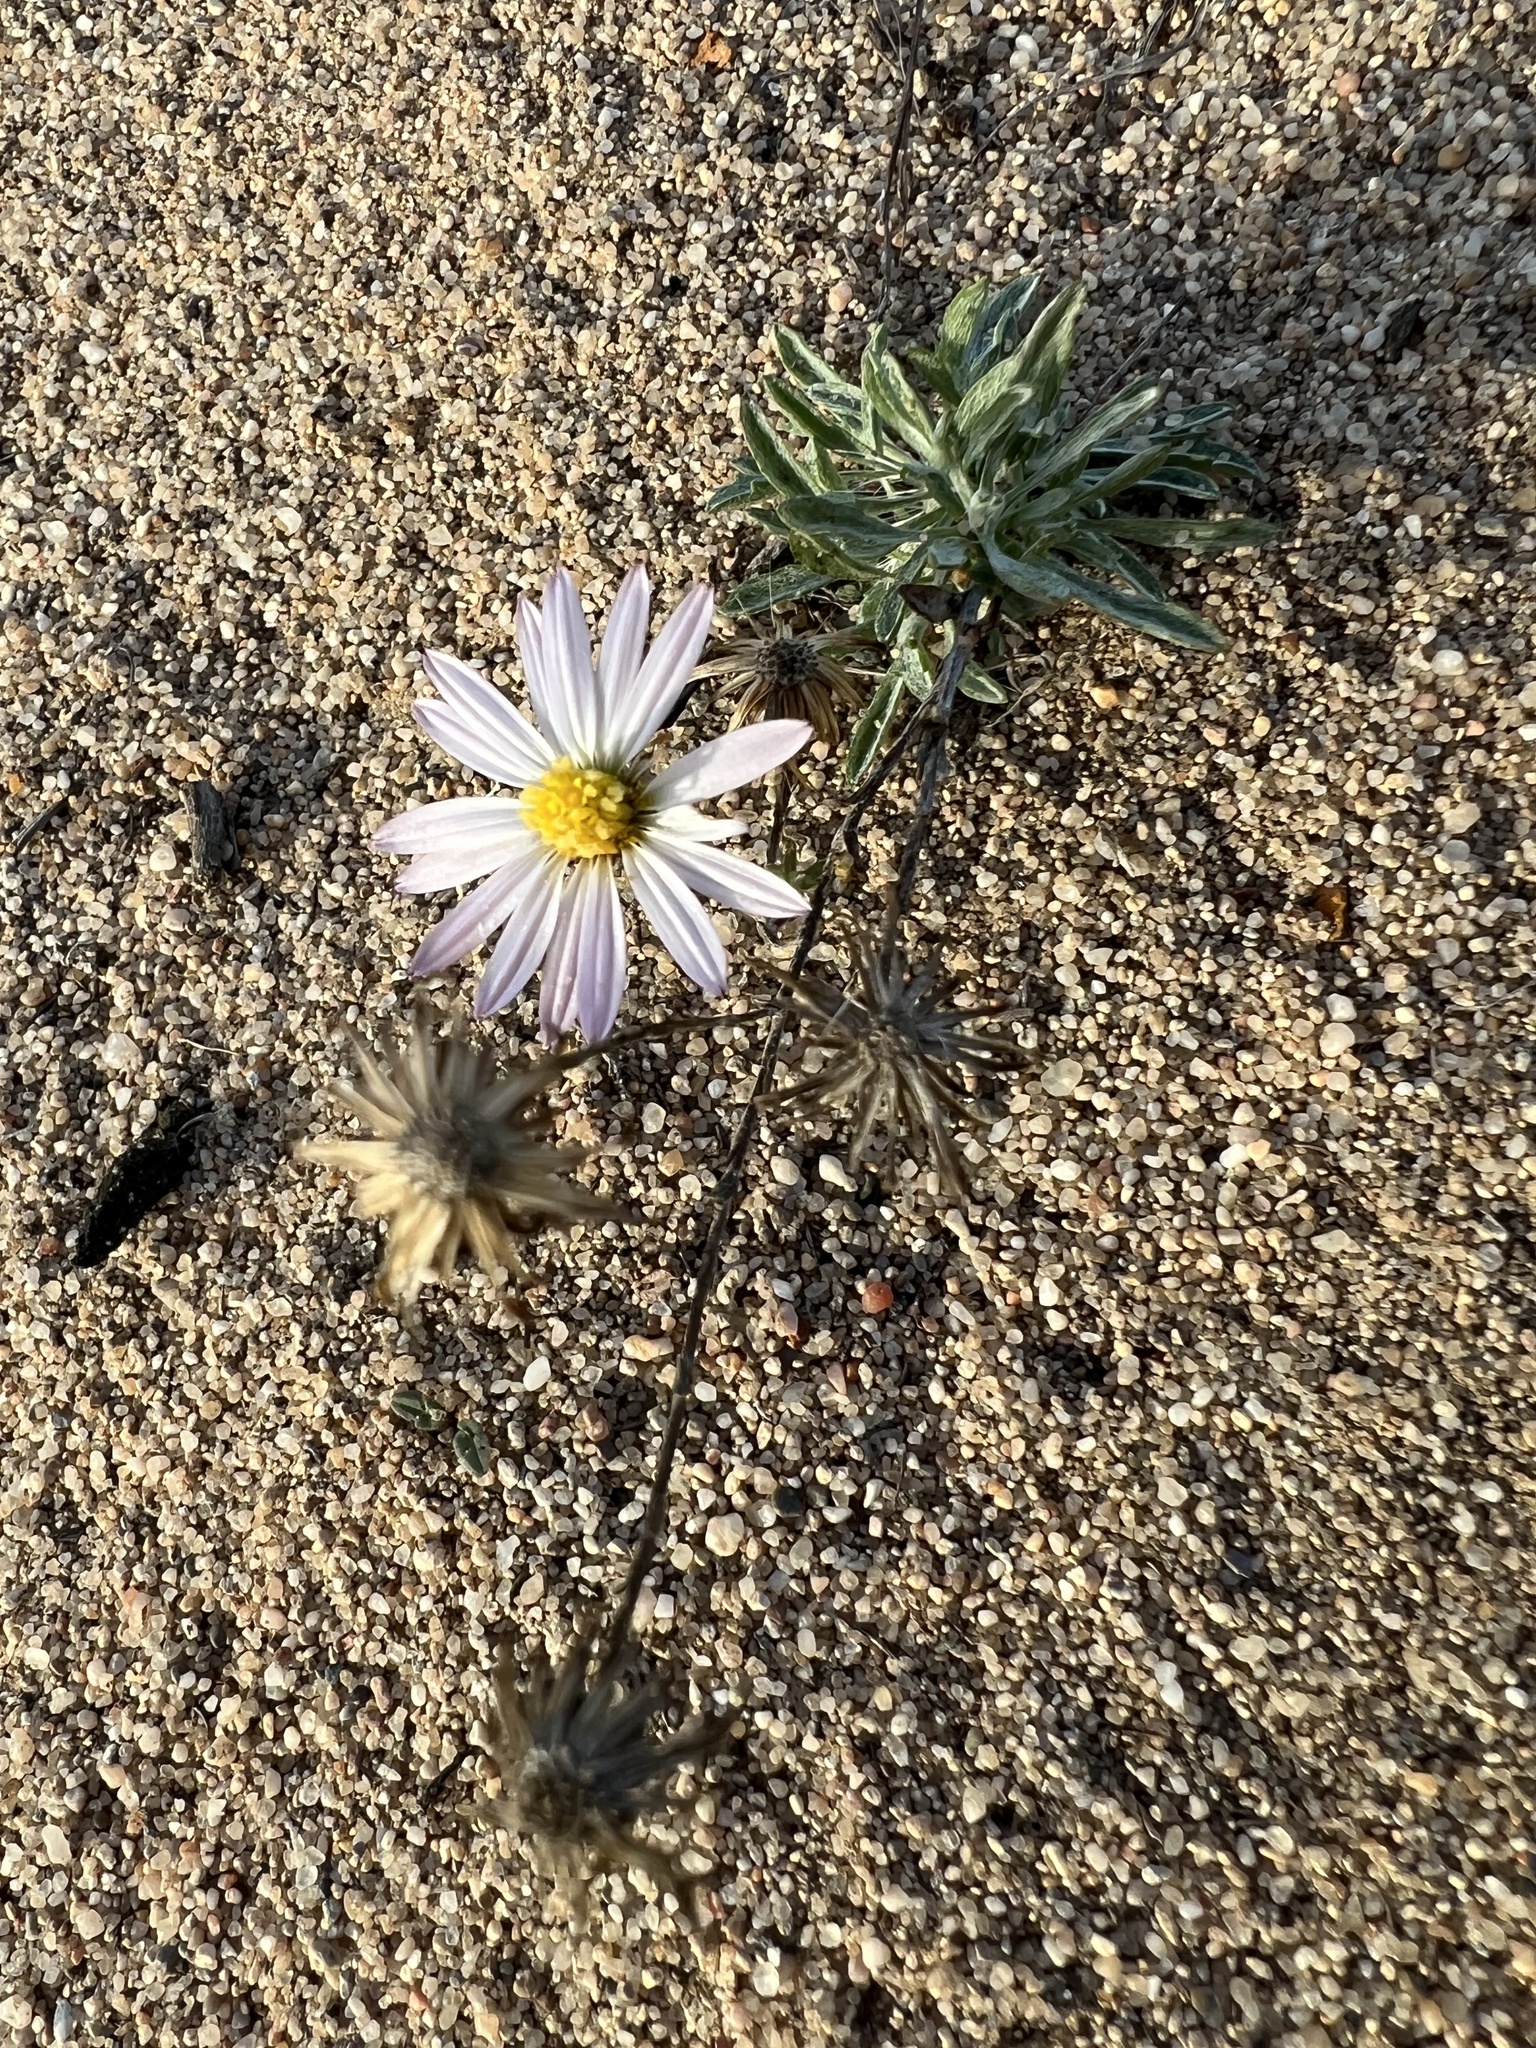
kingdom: Plantae
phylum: Tracheophyta
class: Magnoliopsida
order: Asterales
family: Asteraceae
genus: Corethrogyne
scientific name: Corethrogyne filaginifolia
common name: Sand-aster
